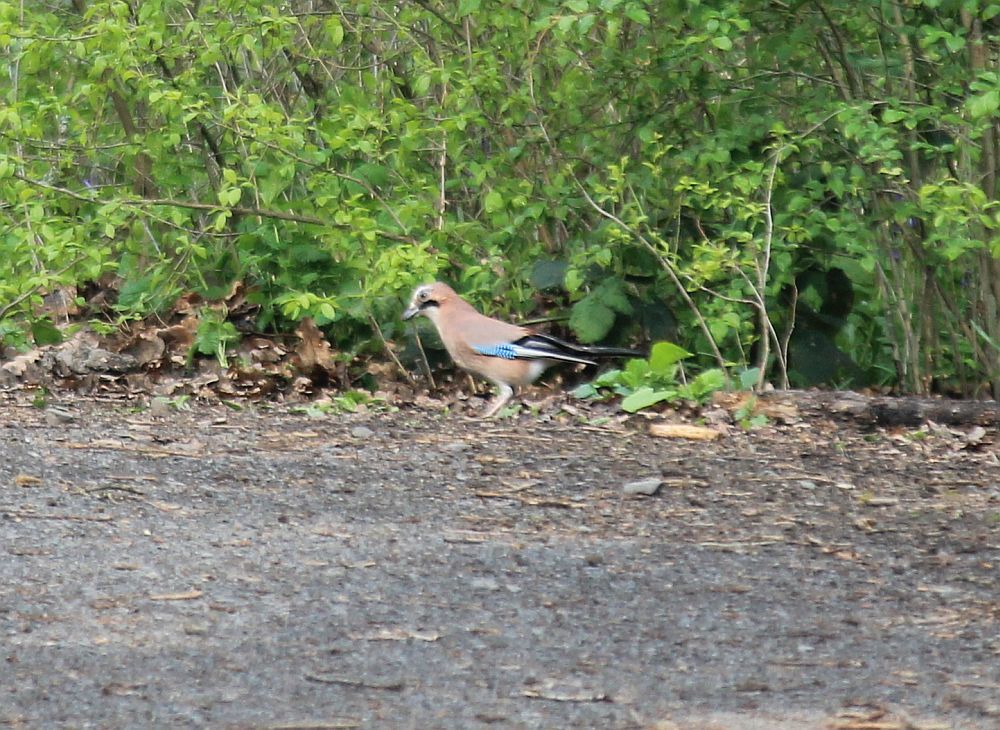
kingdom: Animalia
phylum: Chordata
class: Aves
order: Passeriformes
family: Corvidae
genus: Garrulus
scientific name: Garrulus glandarius
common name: Eurasian jay
